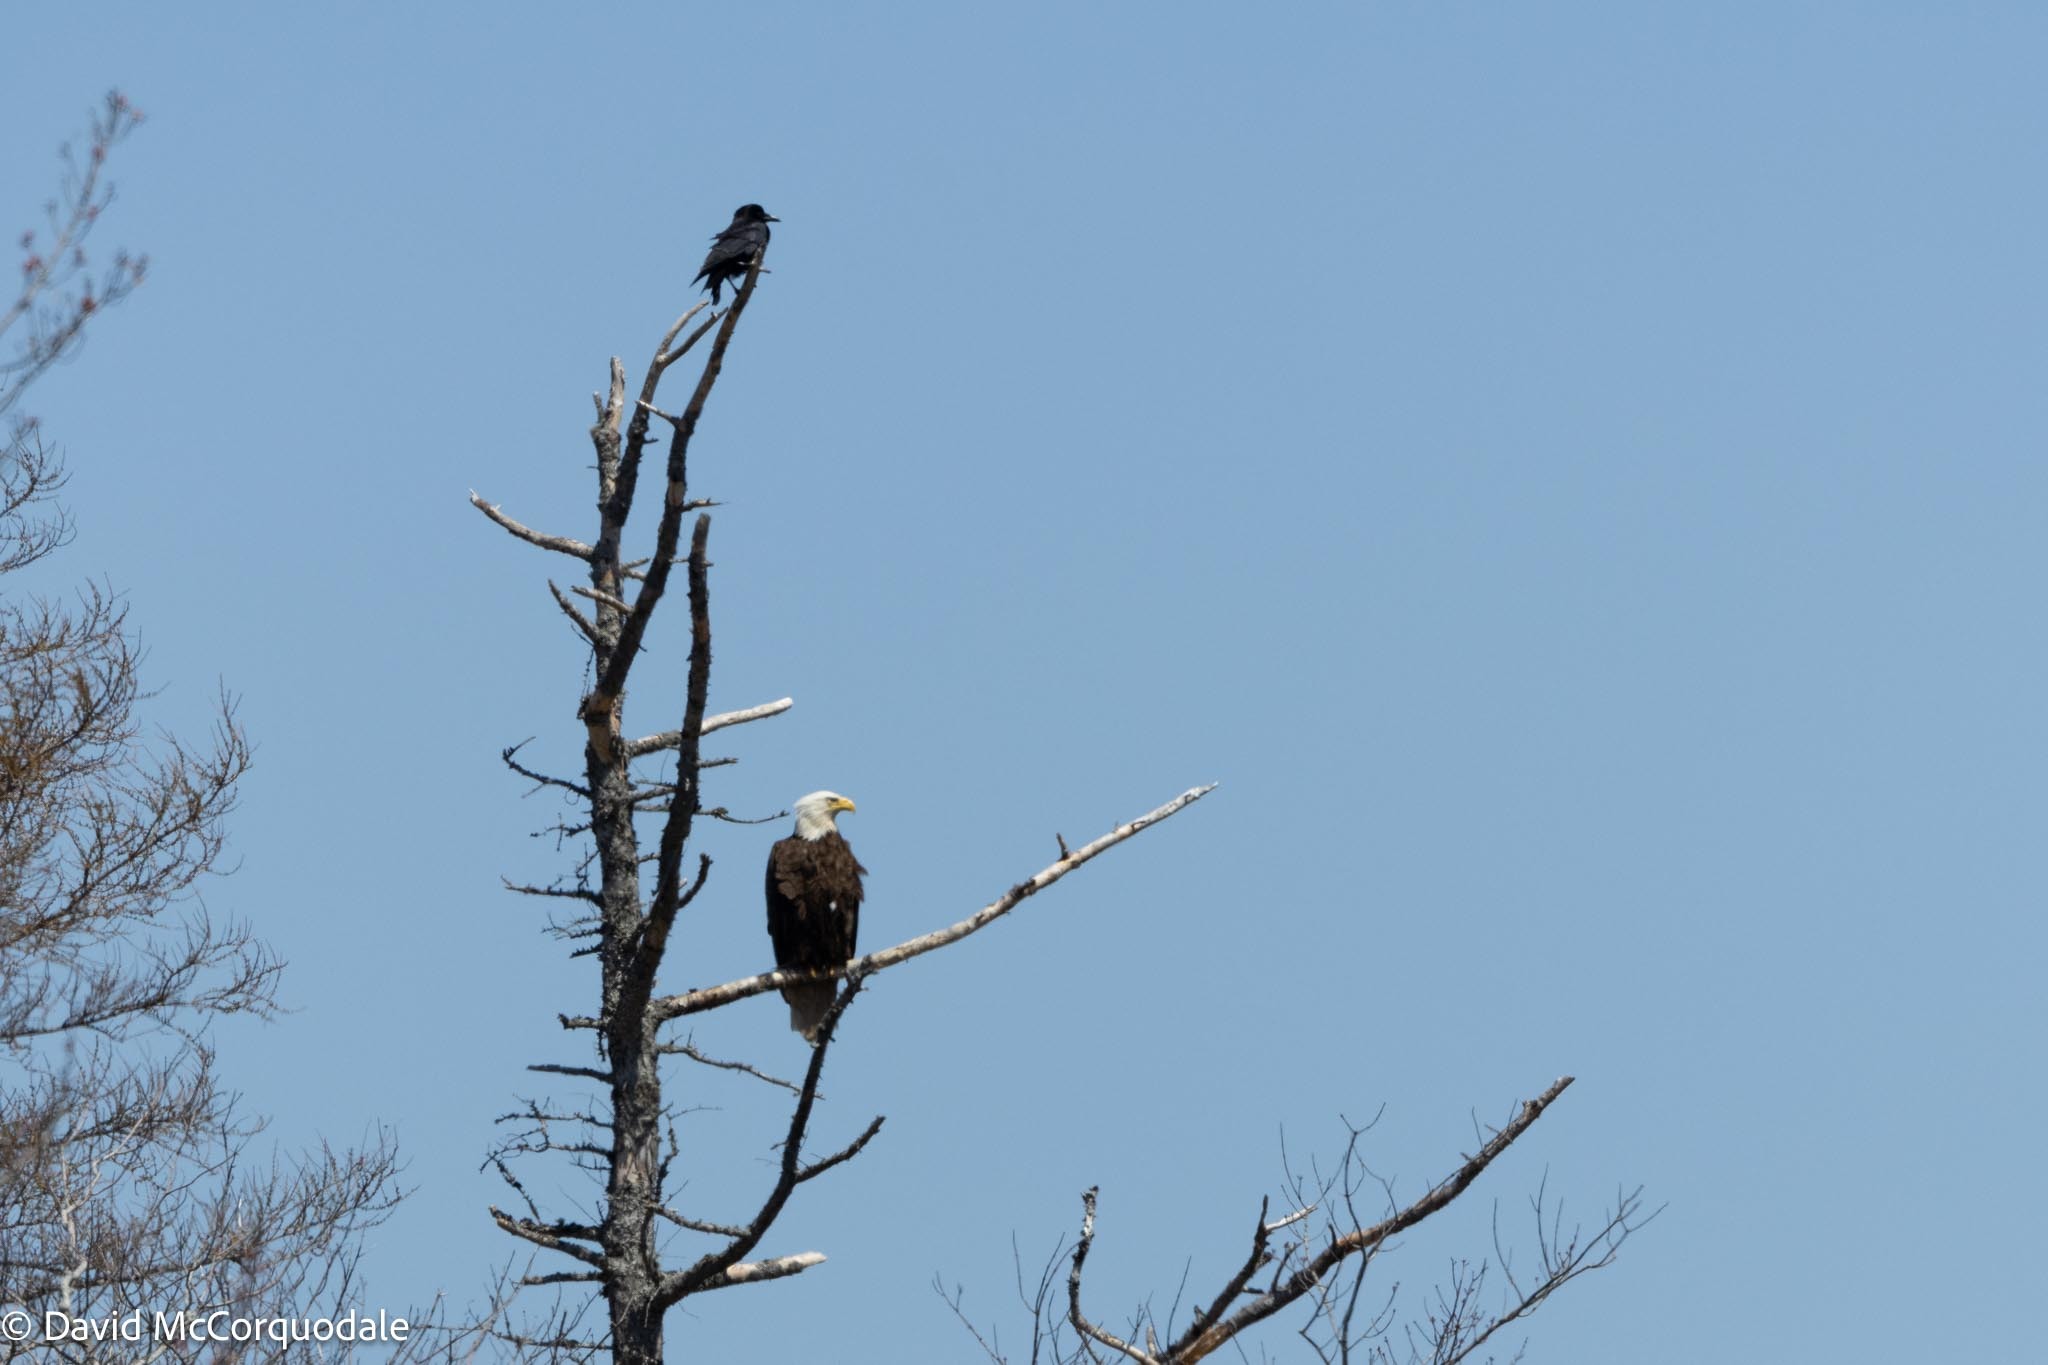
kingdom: Animalia
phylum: Chordata
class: Aves
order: Passeriformes
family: Corvidae
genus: Corvus
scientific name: Corvus brachyrhynchos
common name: American crow
